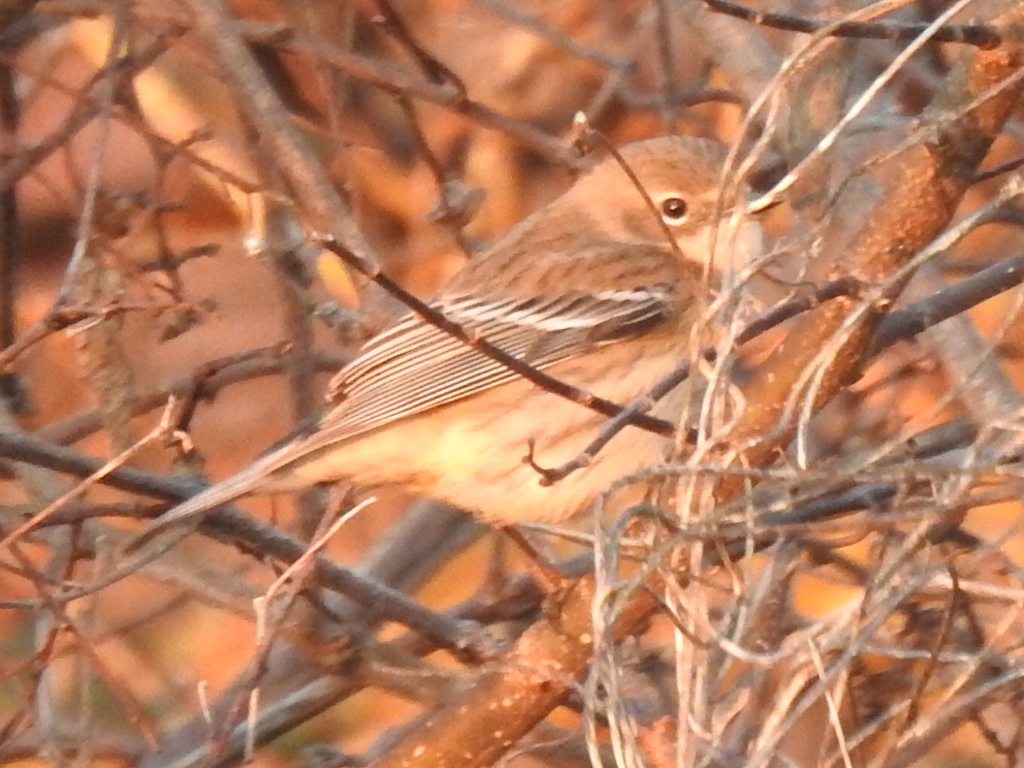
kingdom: Animalia
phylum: Chordata
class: Aves
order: Passeriformes
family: Parulidae
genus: Setophaga
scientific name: Setophaga coronata
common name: Myrtle warbler
